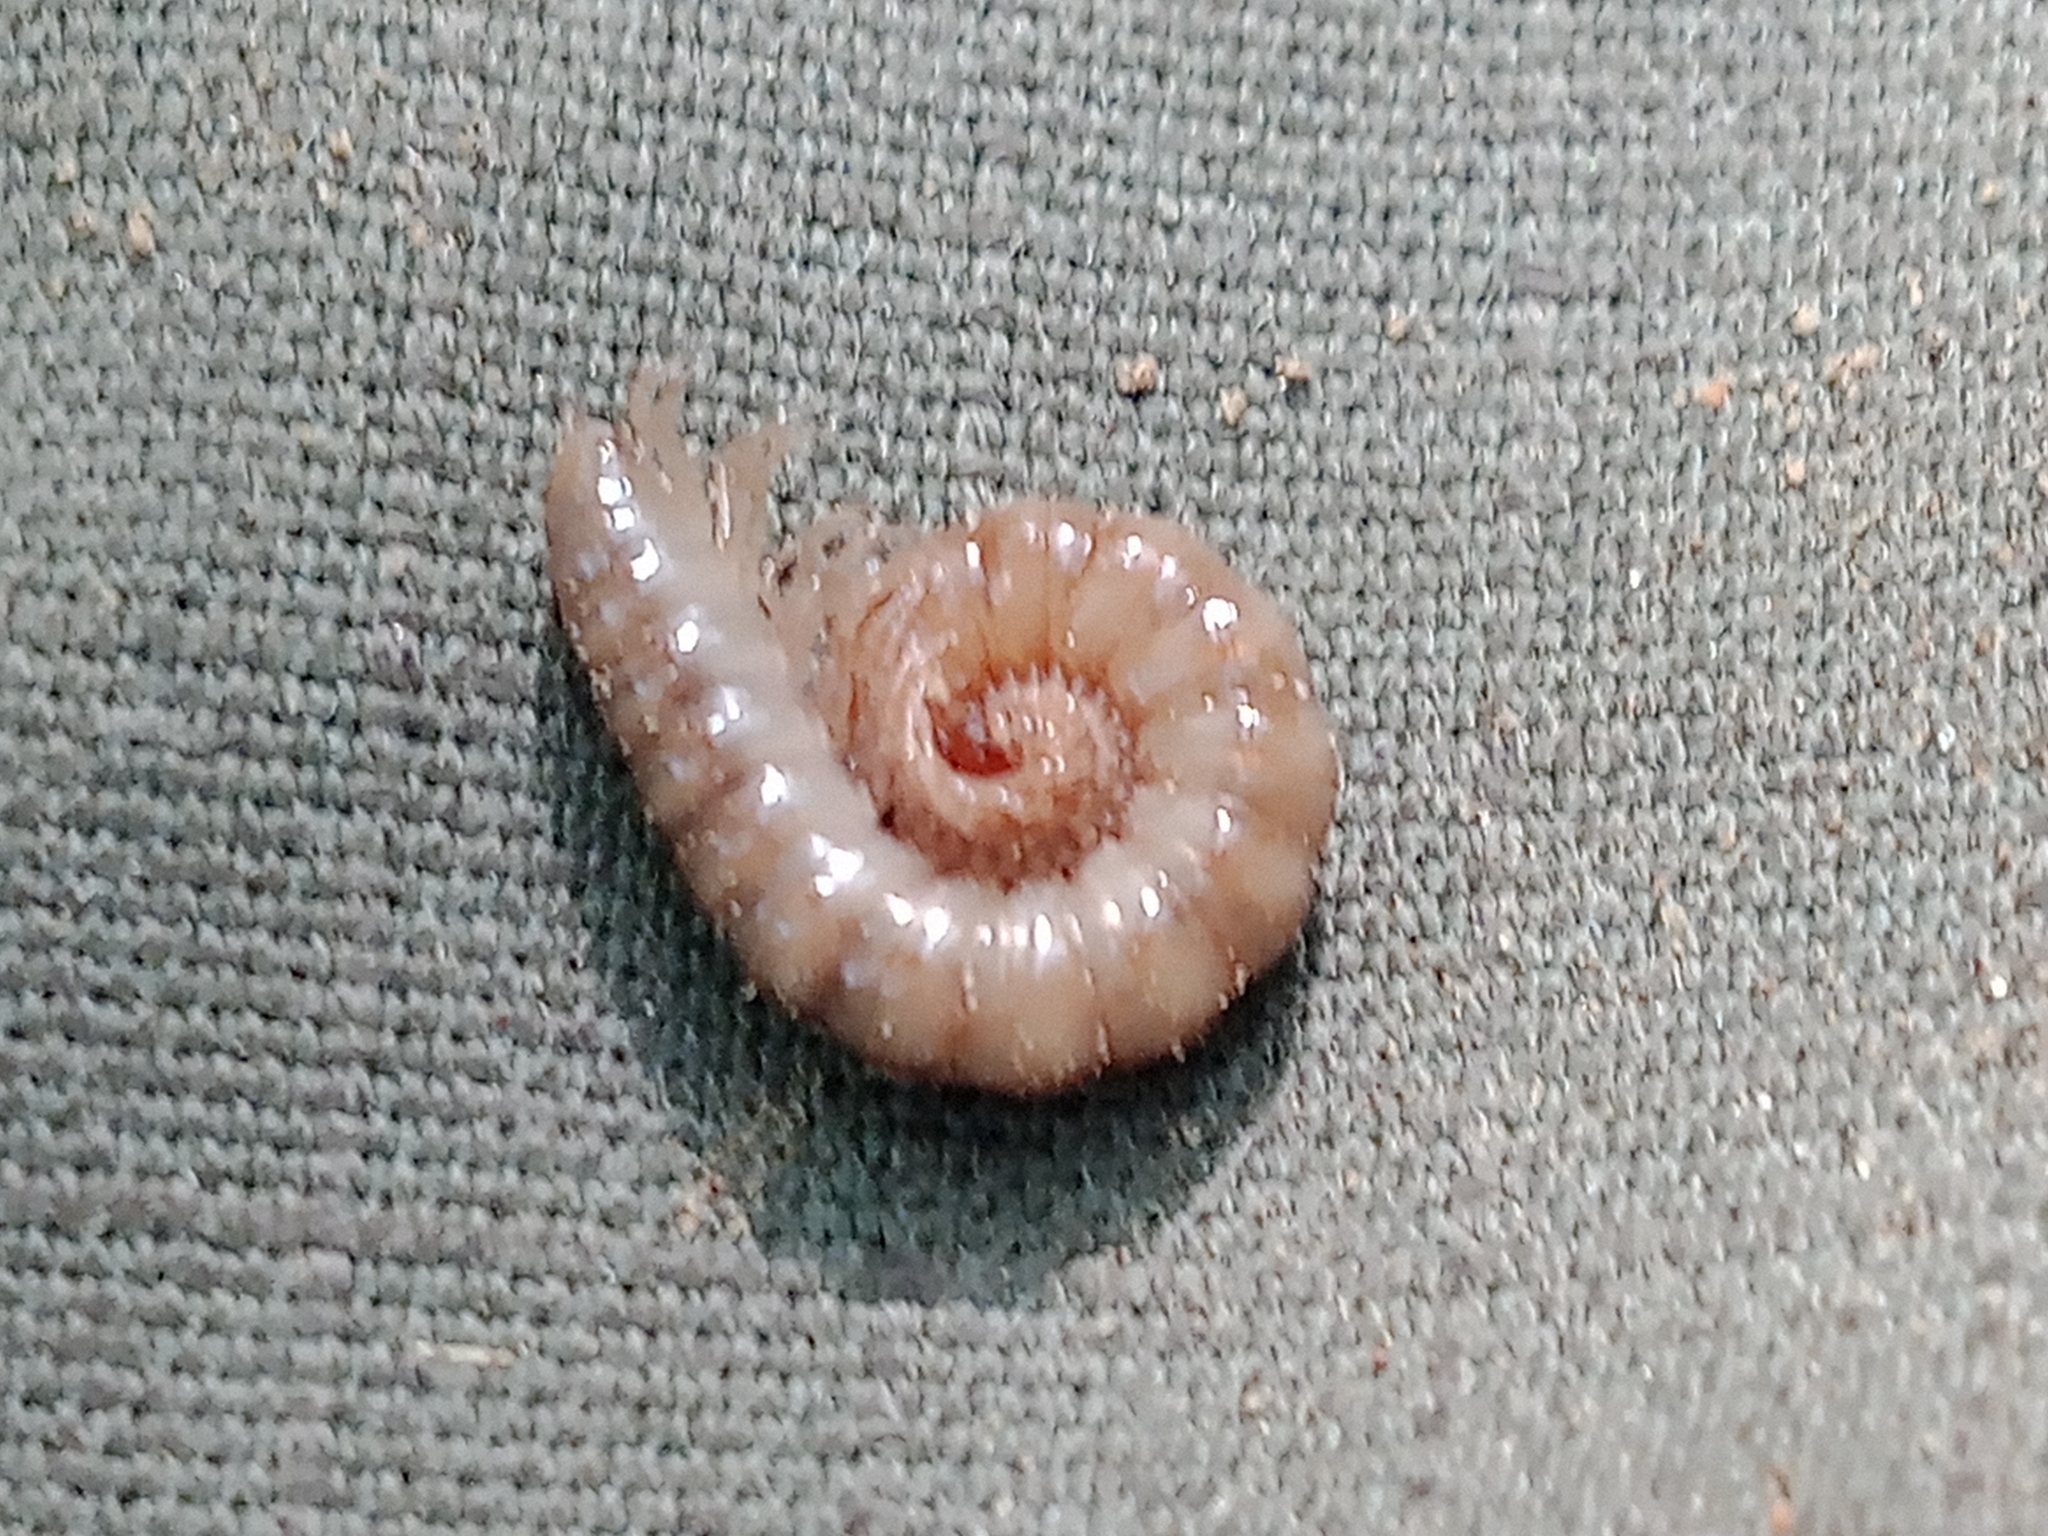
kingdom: Animalia
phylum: Arthropoda
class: Diplopoda
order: Polydesmida
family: Paradoxosomatidae
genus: Strongylosoma
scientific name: Strongylosoma stigmatosus
